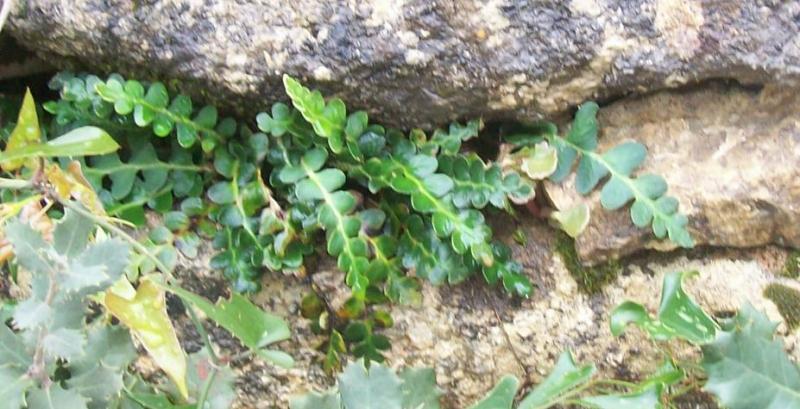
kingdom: Plantae
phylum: Tracheophyta
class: Polypodiopsida
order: Polypodiales
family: Aspleniaceae
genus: Asplenium
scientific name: Asplenium ceterach
